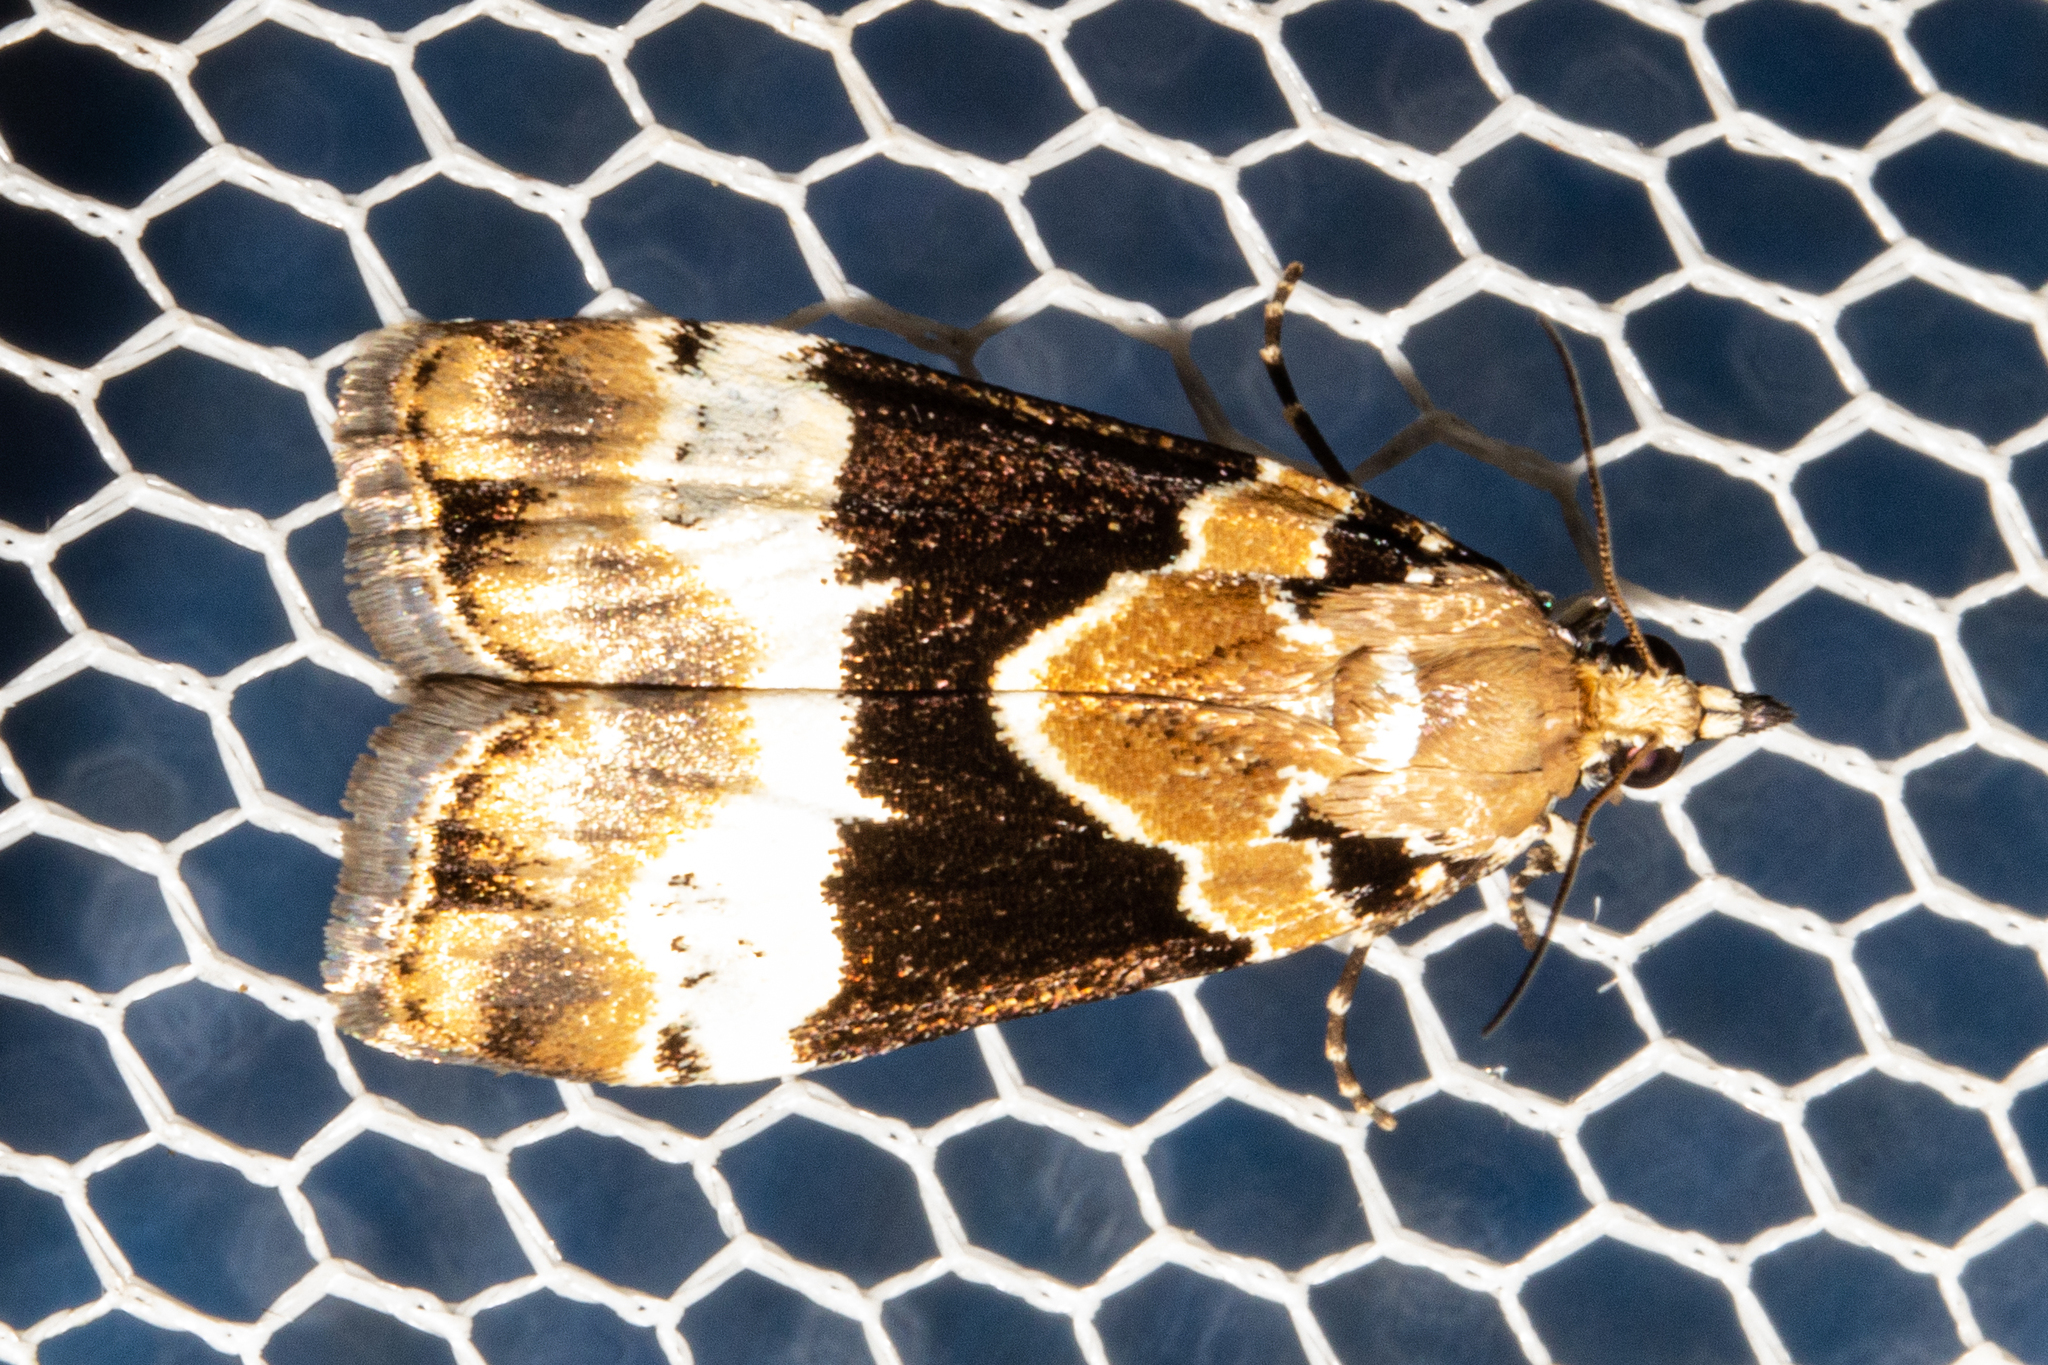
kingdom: Animalia
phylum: Arthropoda
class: Insecta
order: Lepidoptera
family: Crambidae
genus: Eudonia
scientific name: Eudonia aspidota
